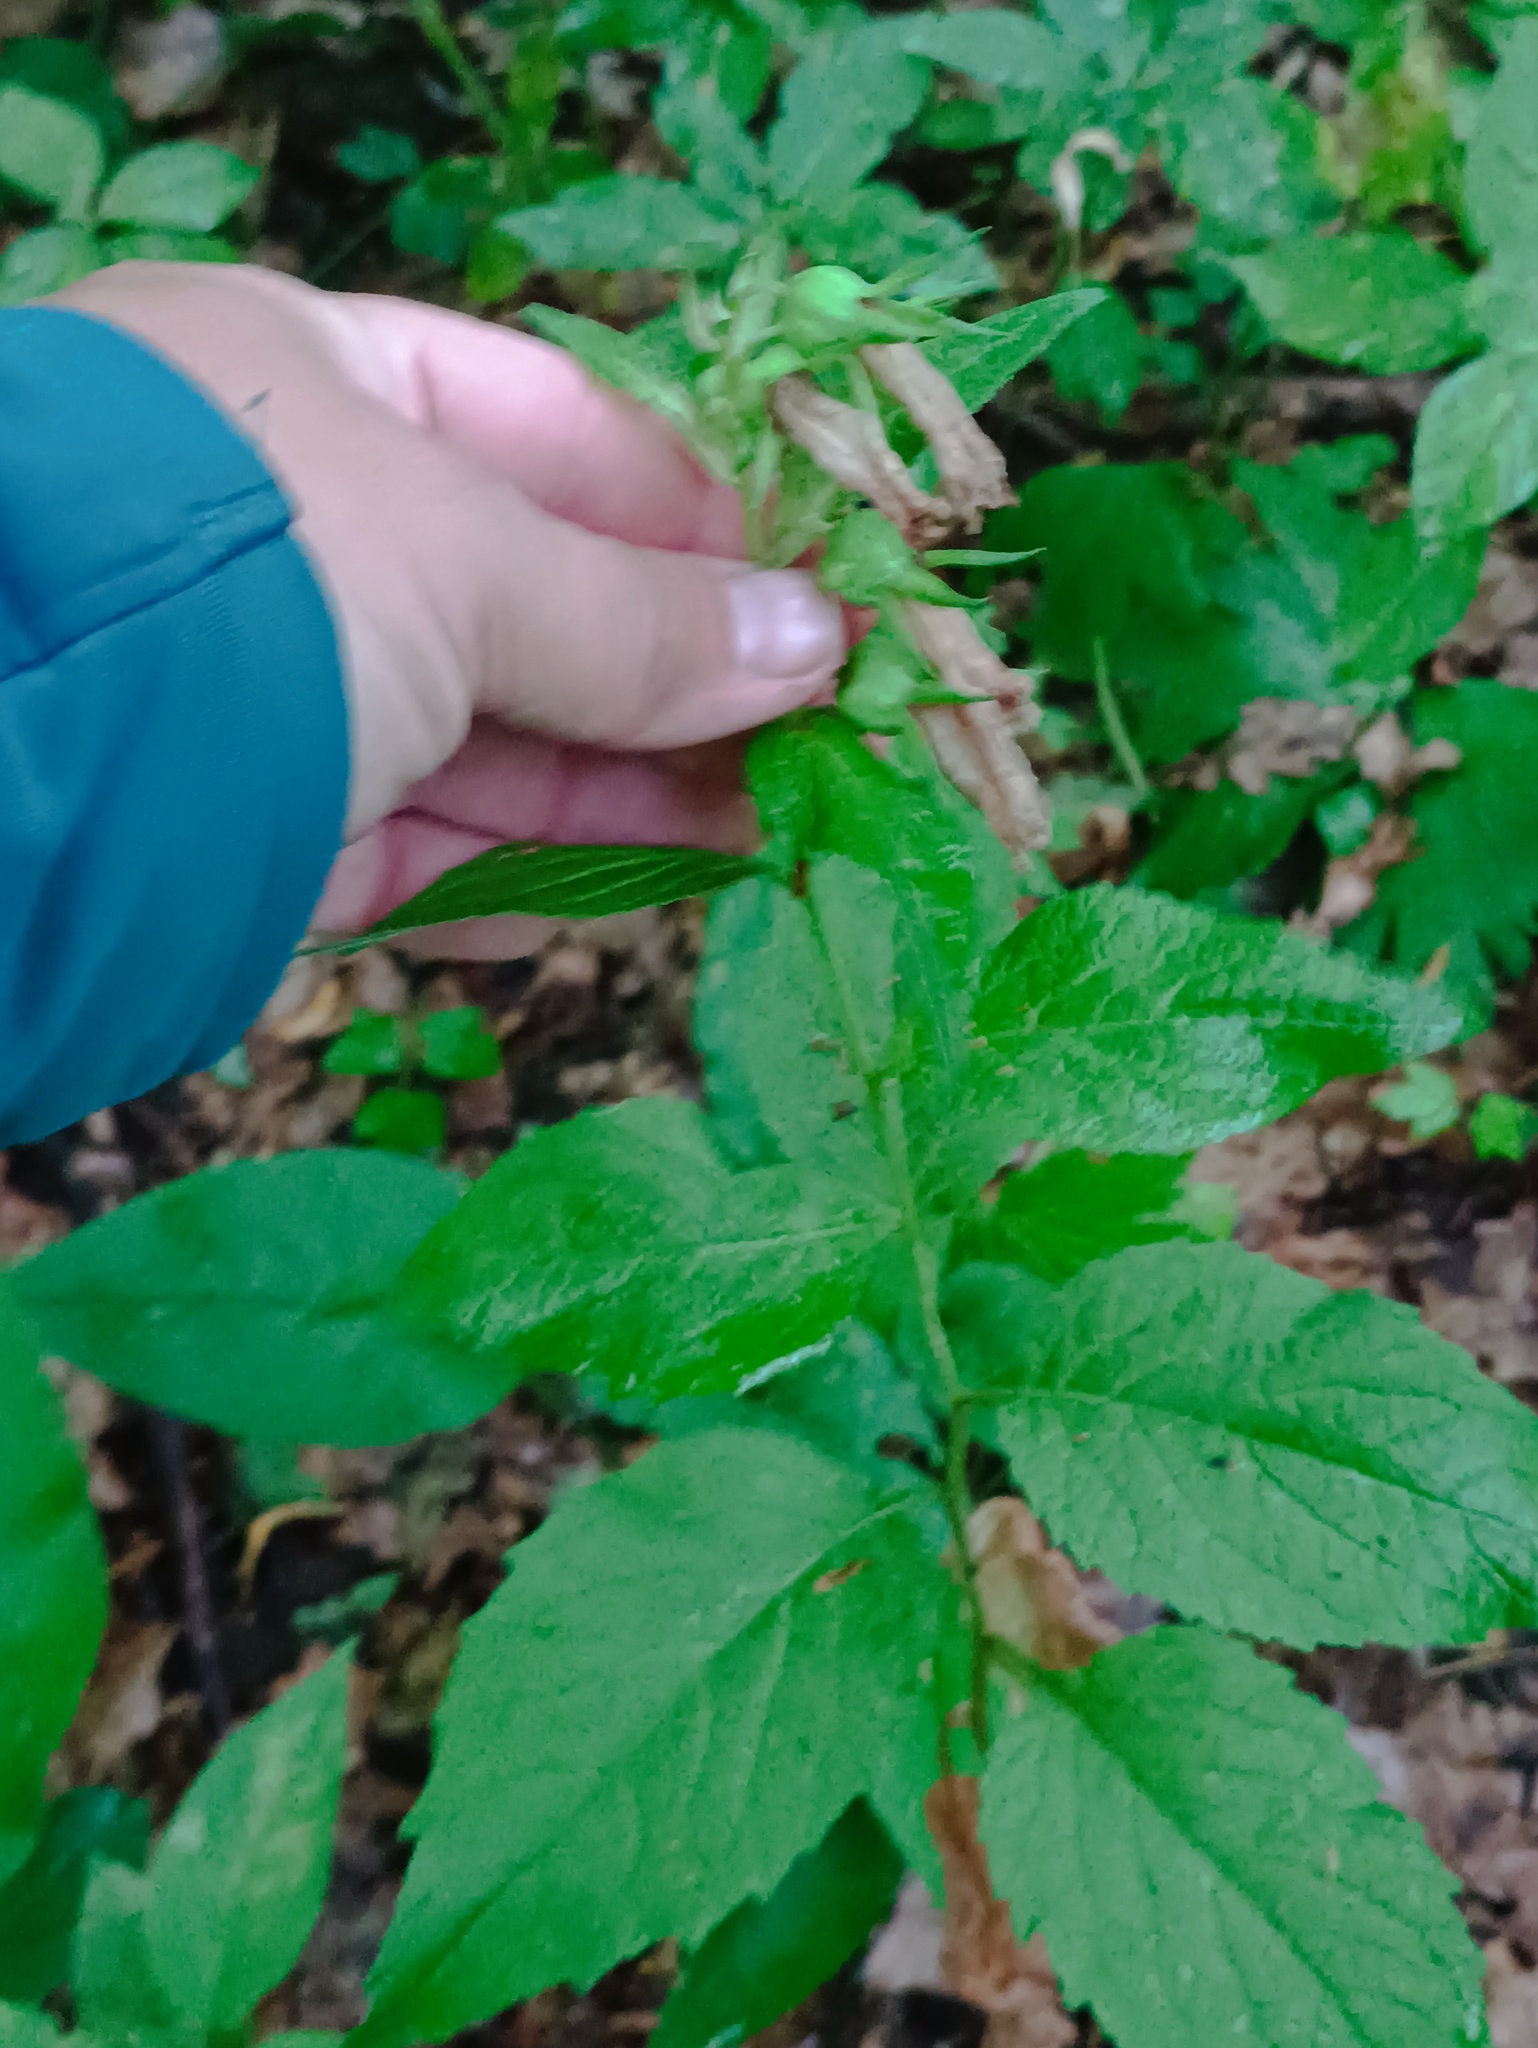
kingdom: Plantae
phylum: Tracheophyta
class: Magnoliopsida
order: Asterales
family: Campanulaceae
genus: Campanula
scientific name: Campanula latifolia
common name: Giant bellflower
